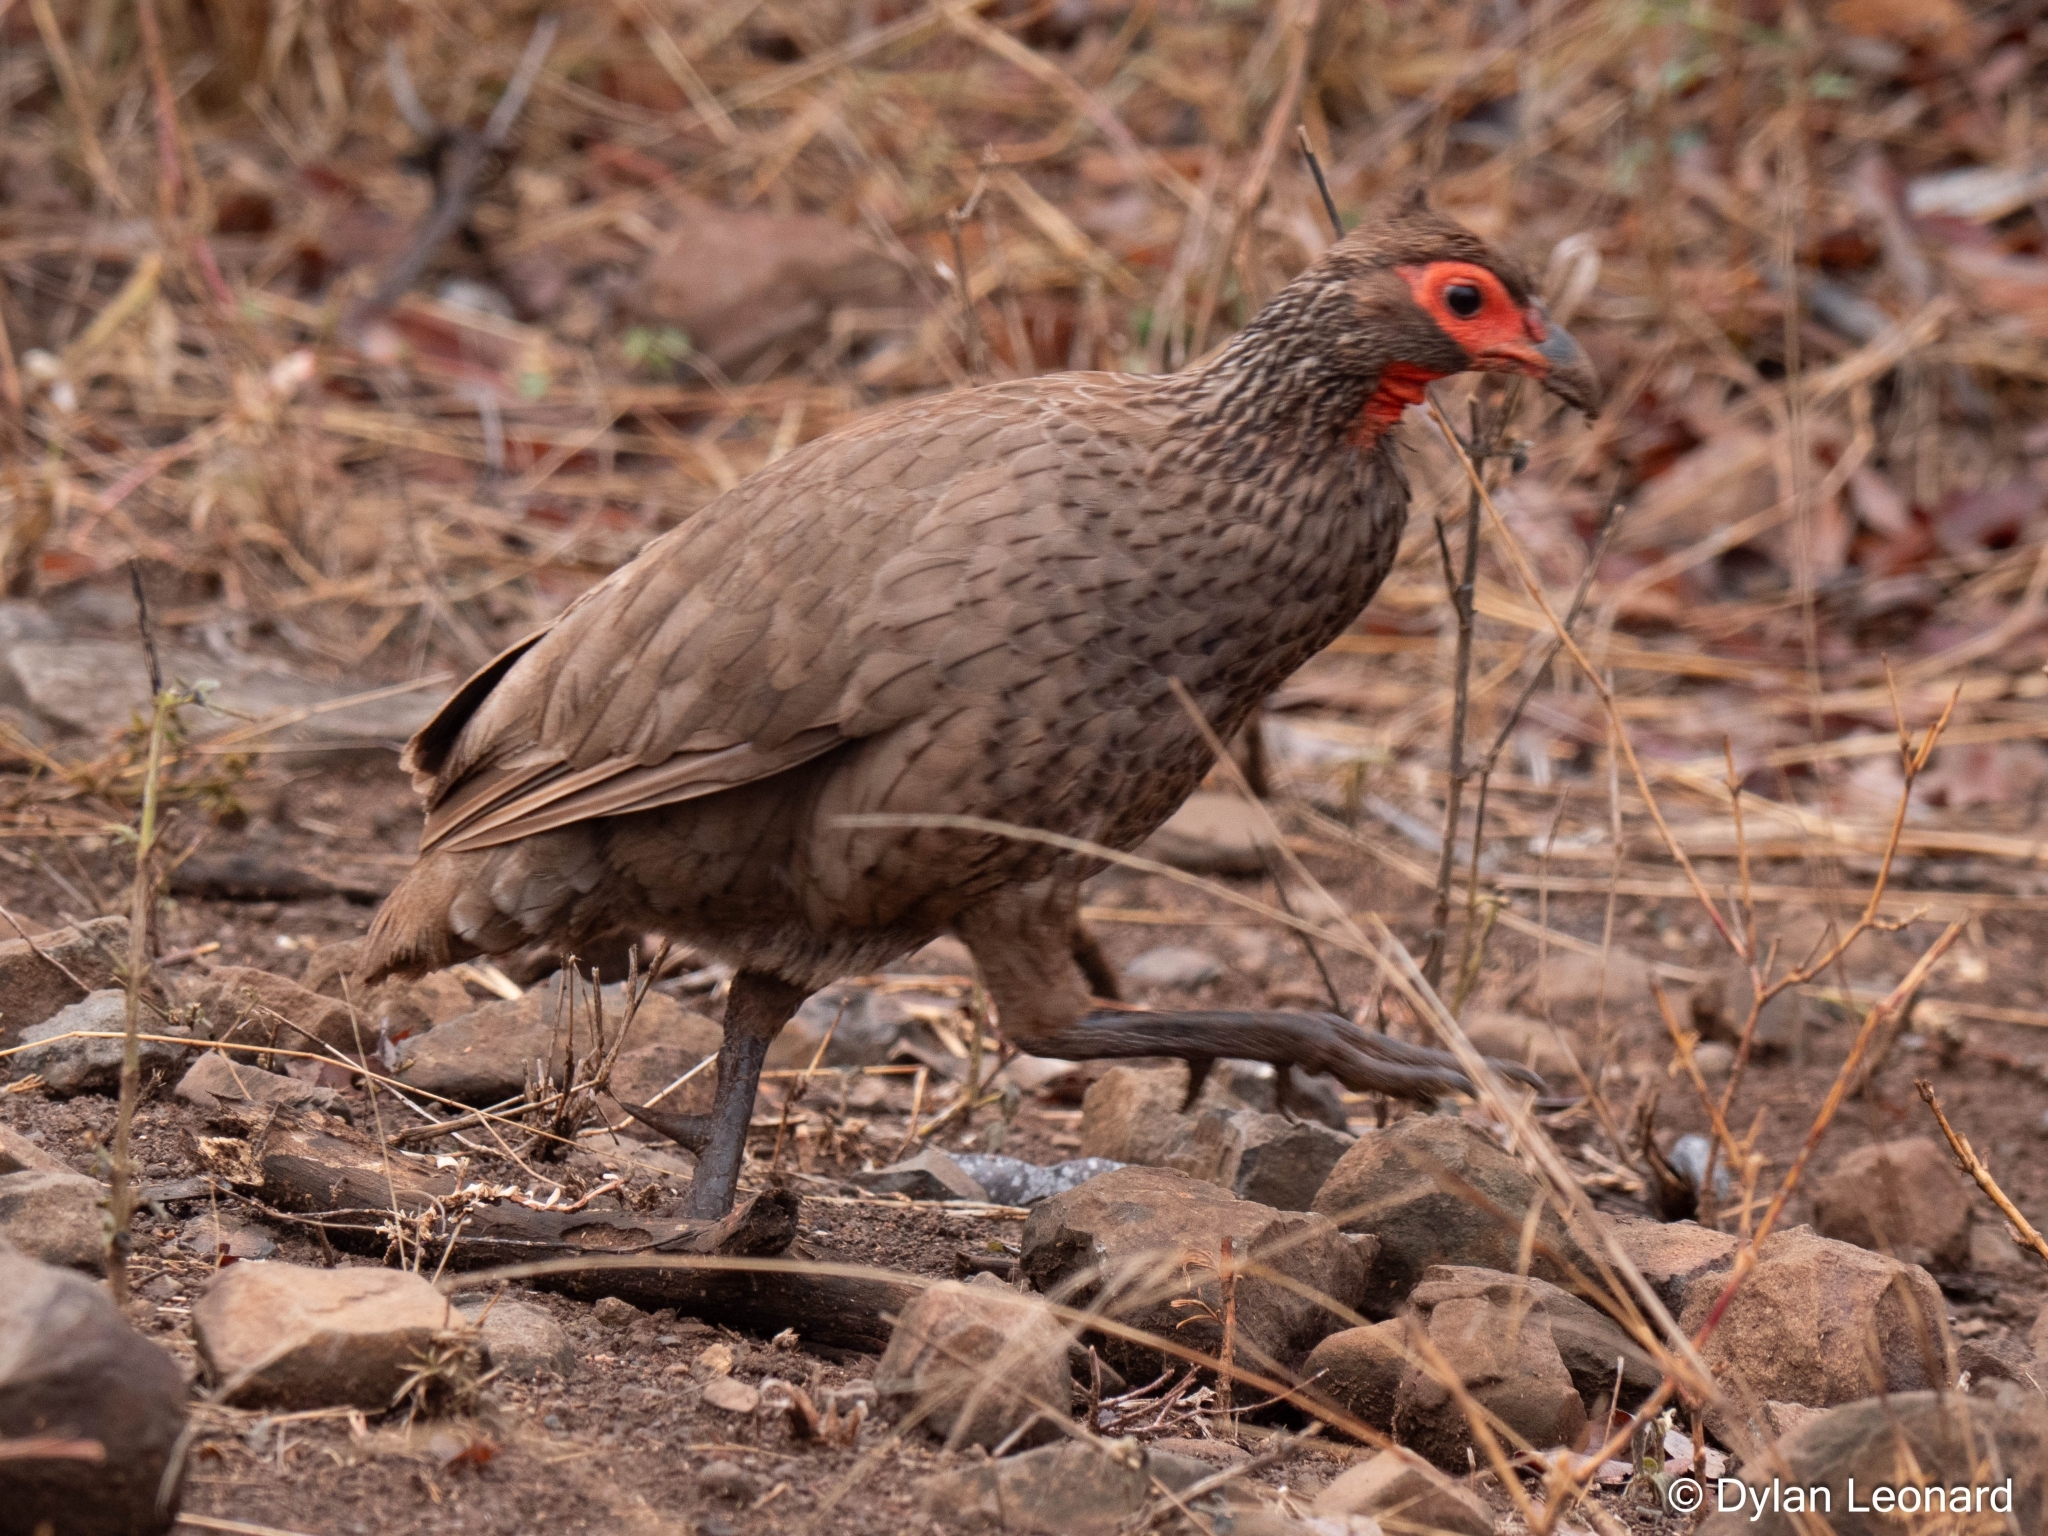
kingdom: Animalia
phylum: Chordata
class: Aves
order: Galliformes
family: Phasianidae
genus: Pternistis
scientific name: Pternistis swainsonii
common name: Swainson's spurfowl
